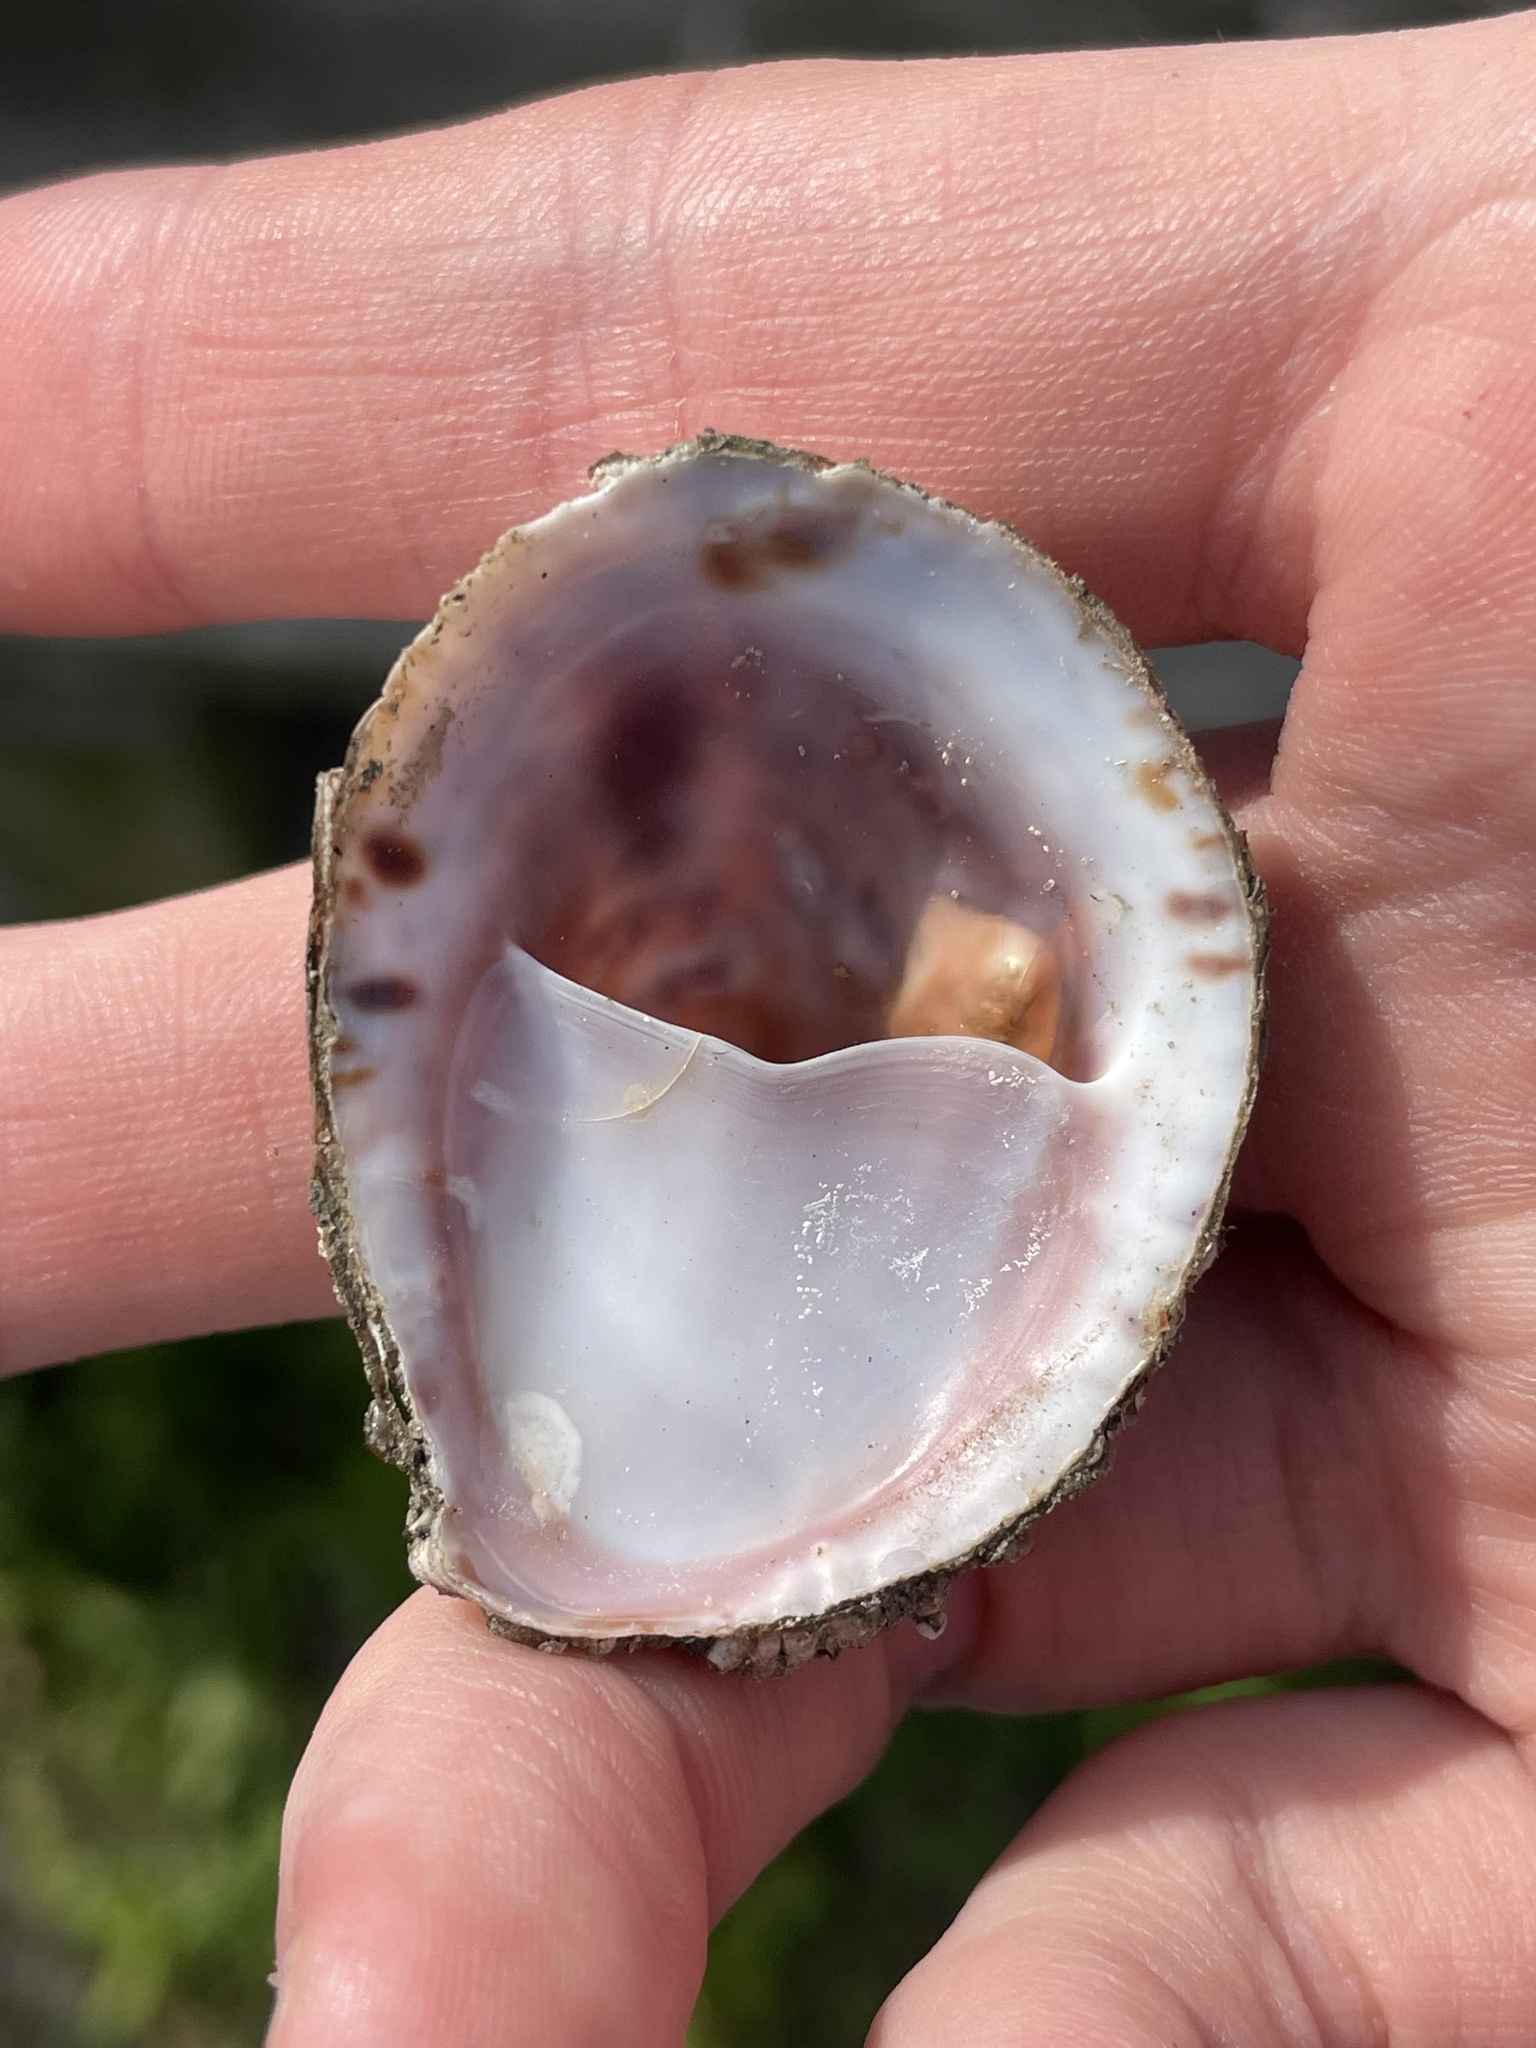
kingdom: Animalia
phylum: Mollusca
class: Gastropoda
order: Littorinimorpha
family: Calyptraeidae
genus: Crepidula
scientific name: Crepidula fornicata
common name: Slipper limpet
